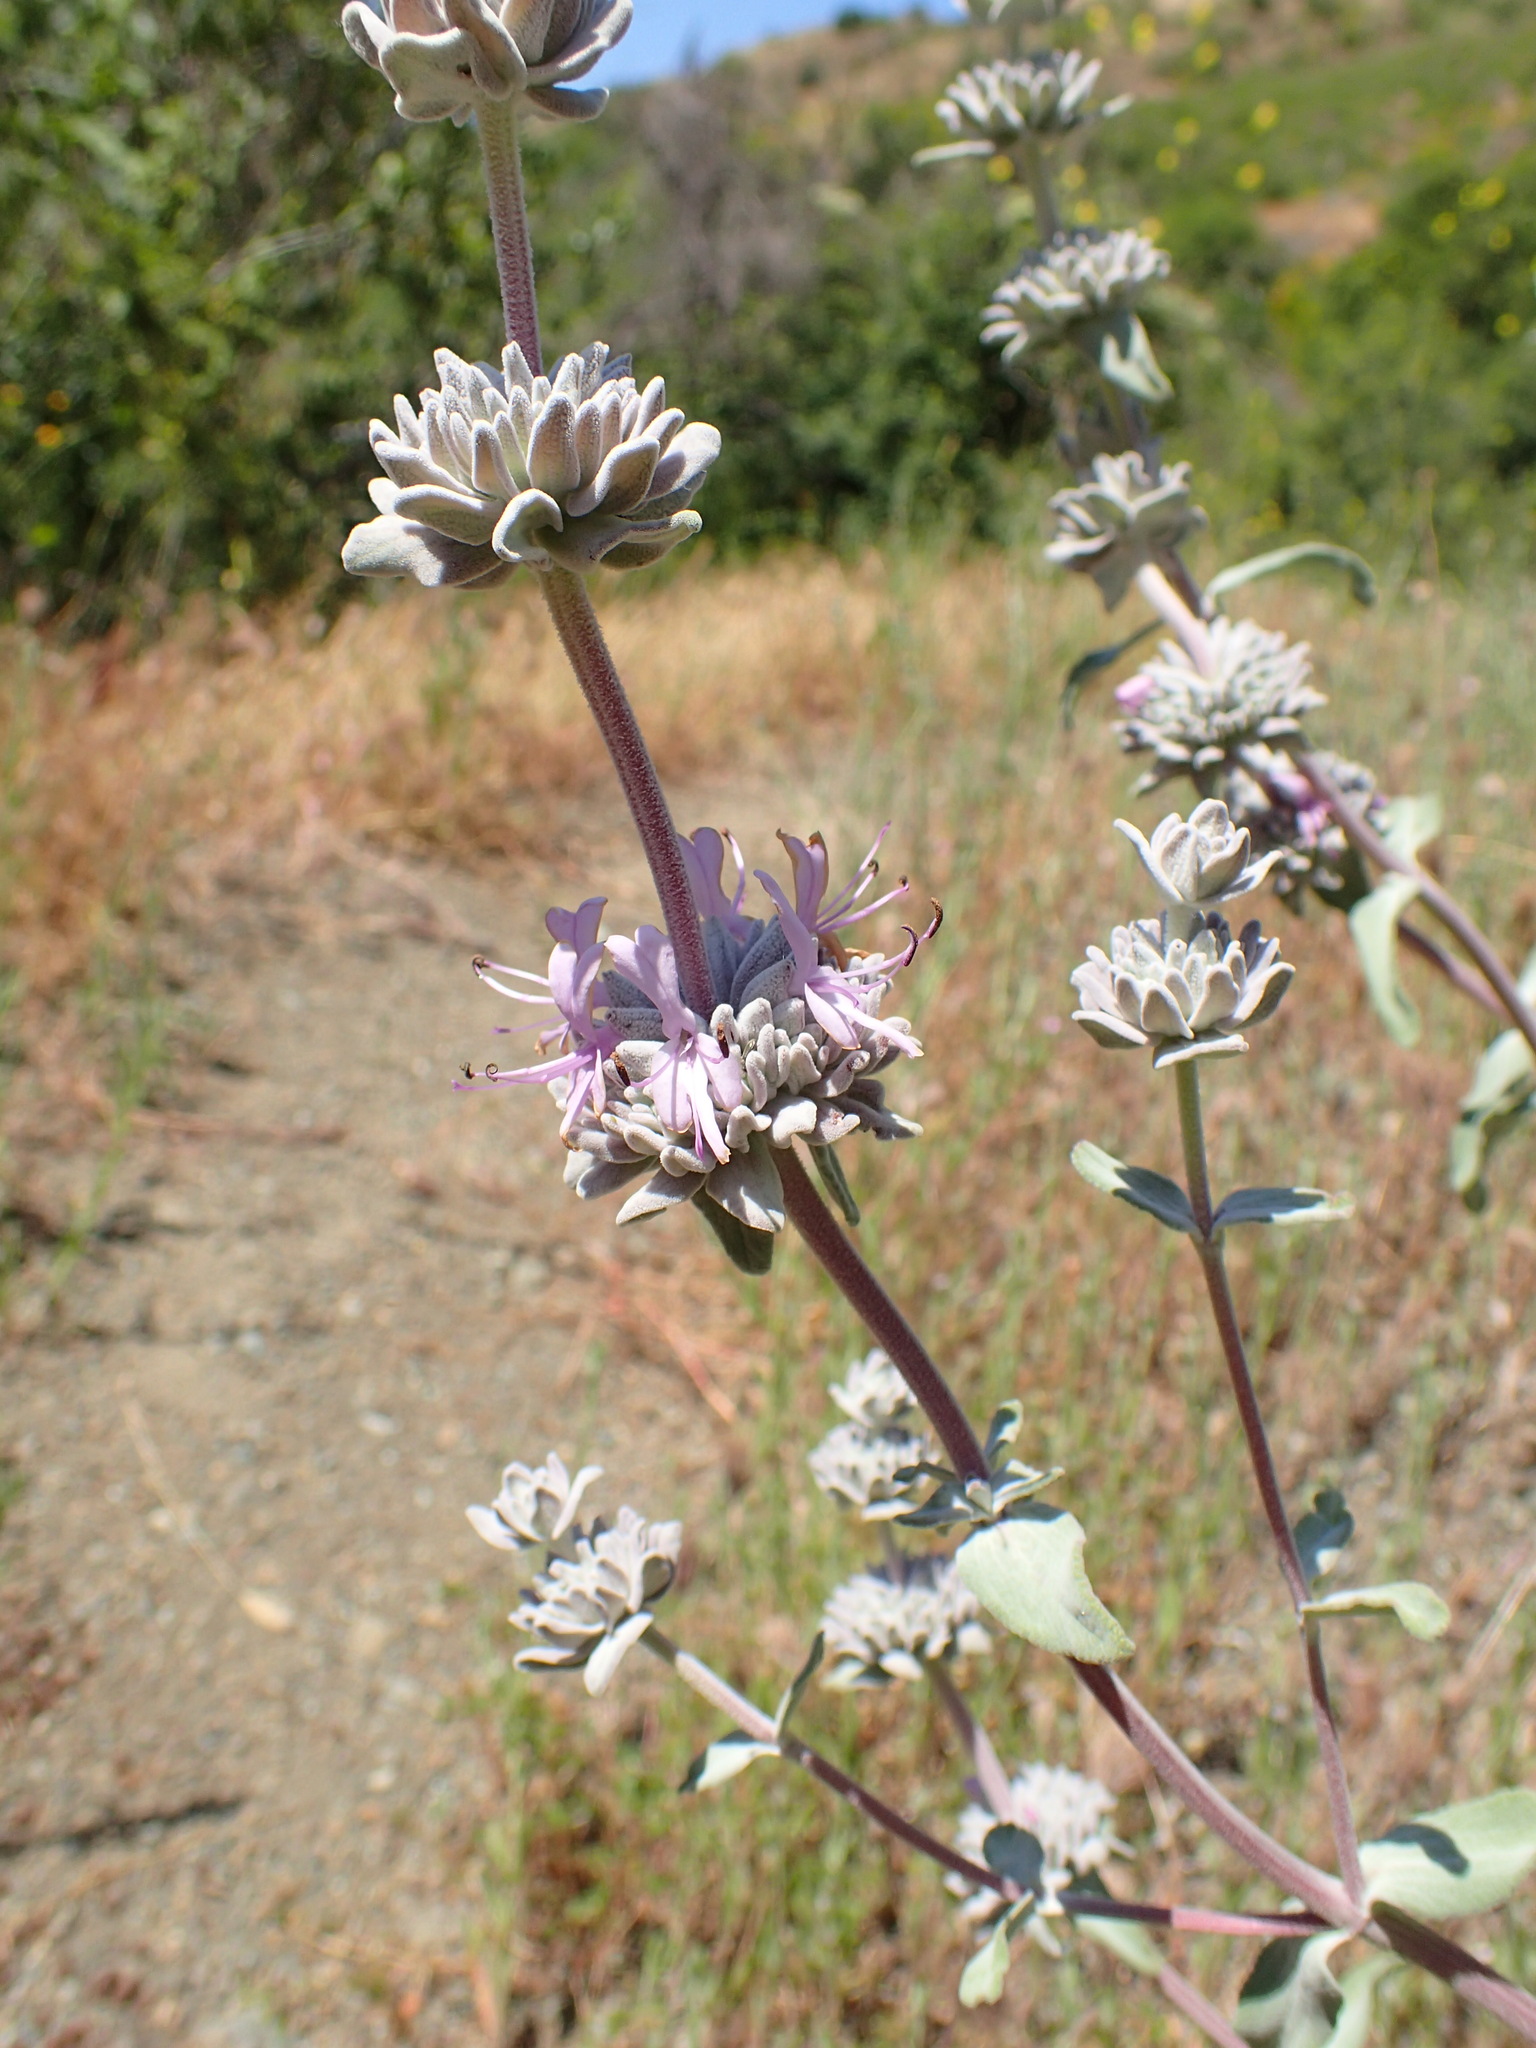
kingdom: Plantae
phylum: Tracheophyta
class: Magnoliopsida
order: Lamiales
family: Lamiaceae
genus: Salvia
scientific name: Salvia leucophylla
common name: Purple sage
